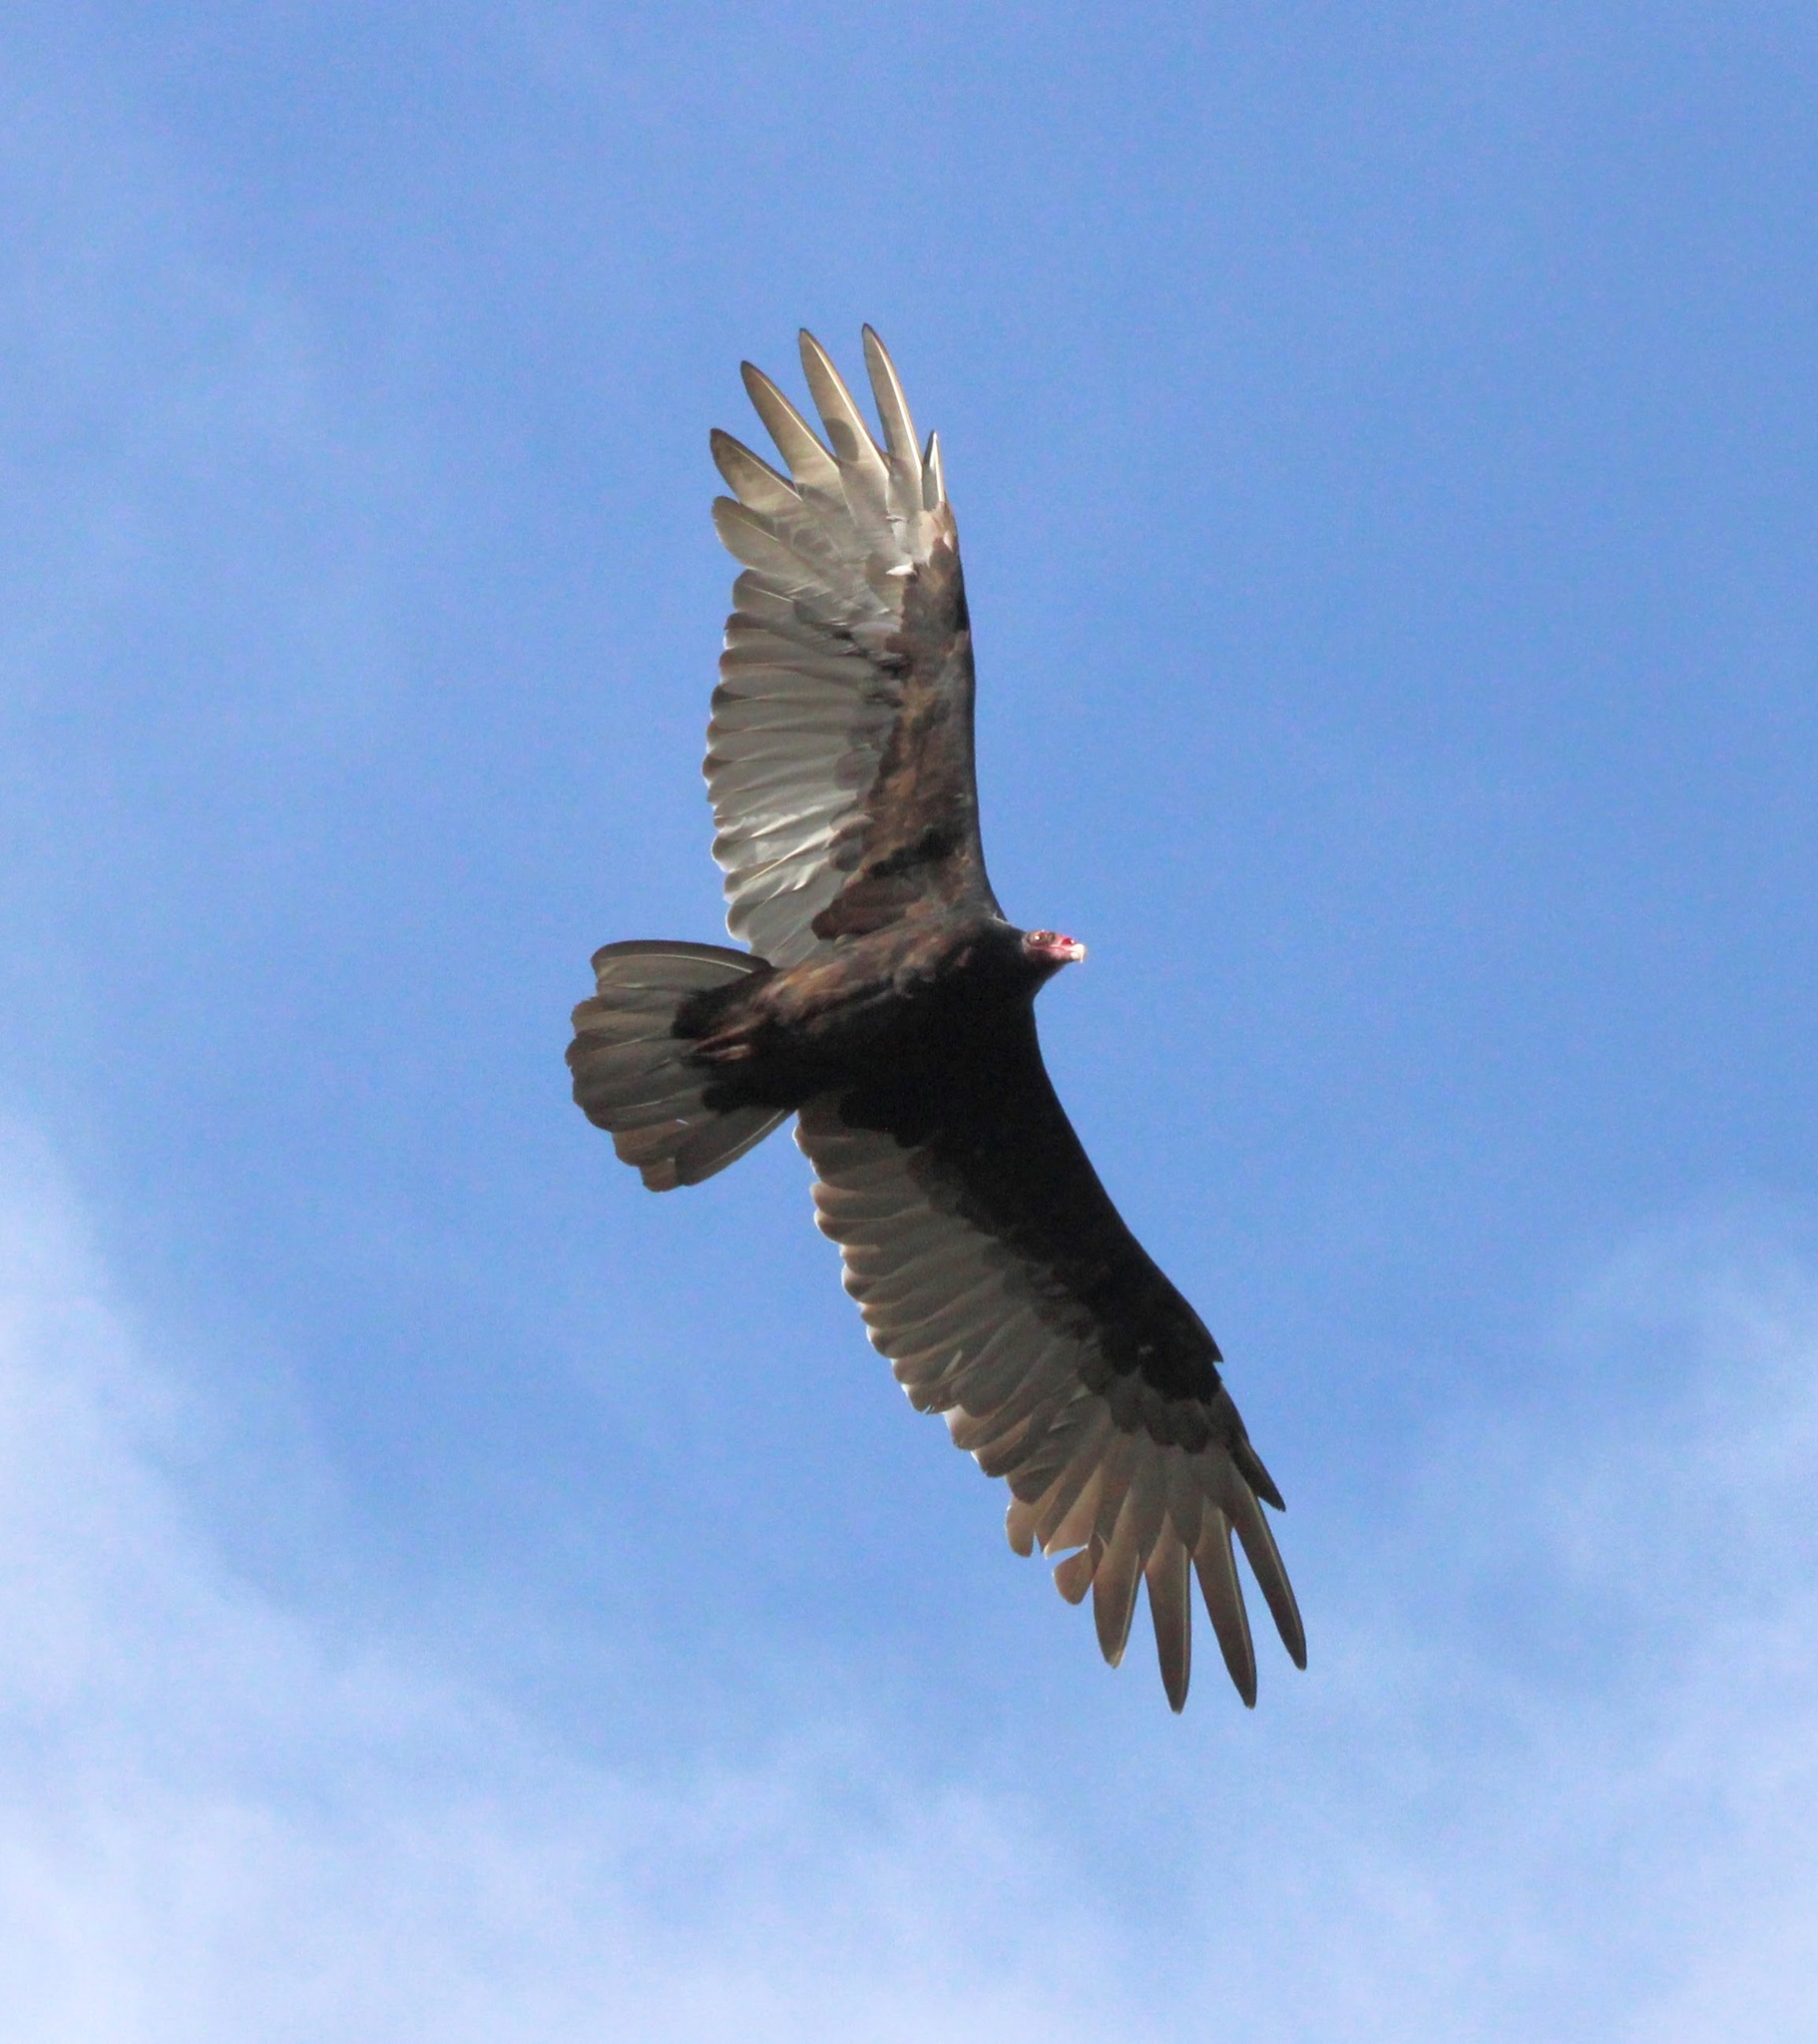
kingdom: Animalia
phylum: Chordata
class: Aves
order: Accipitriformes
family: Cathartidae
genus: Cathartes
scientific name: Cathartes aura
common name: Turkey vulture
